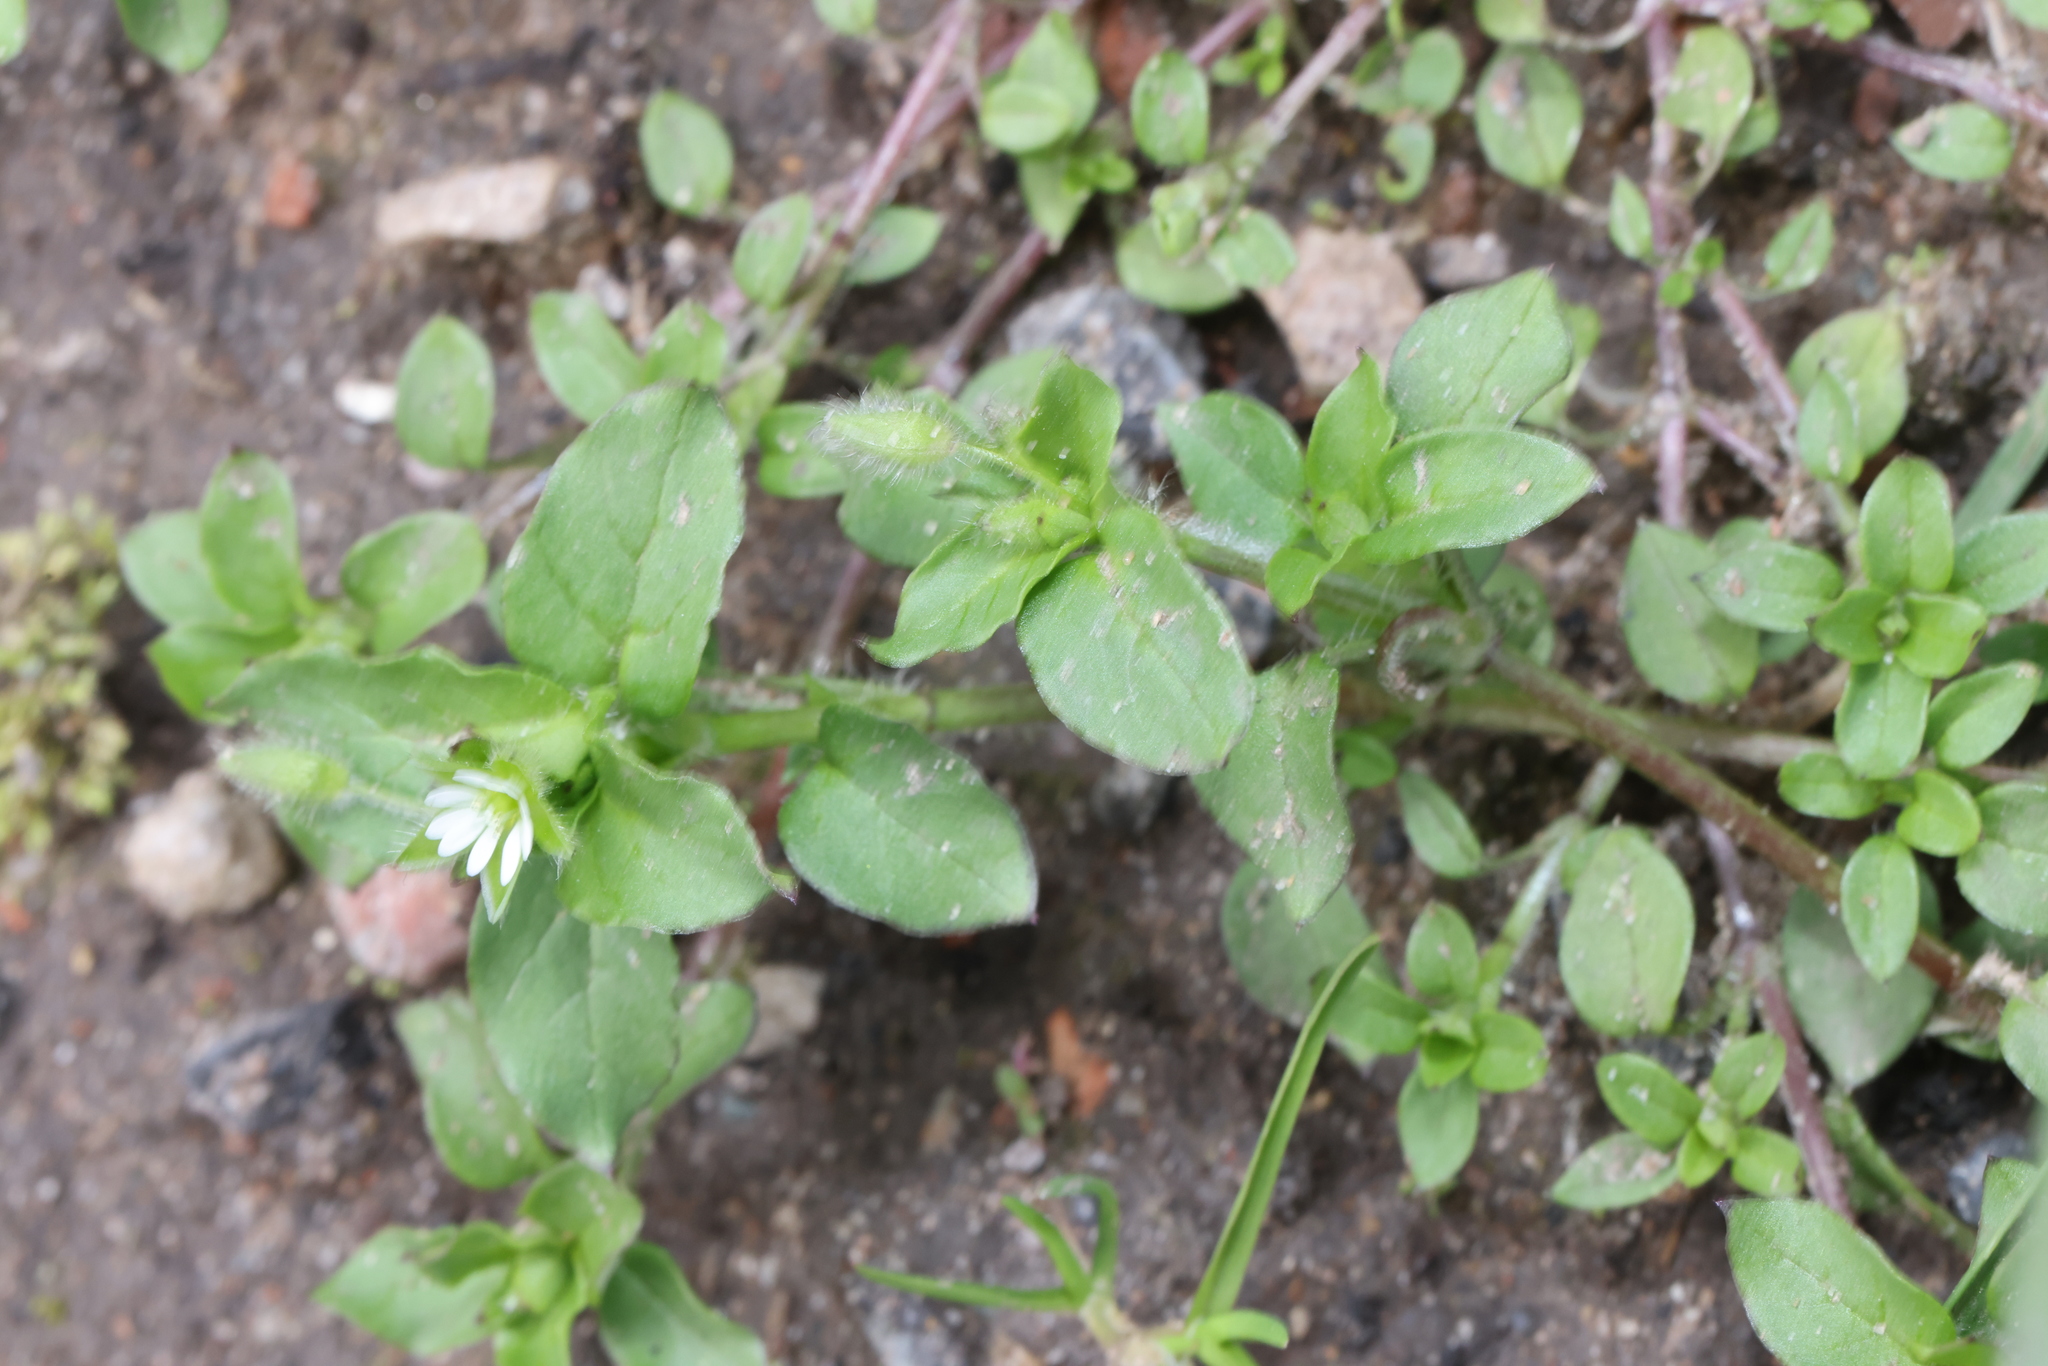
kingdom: Plantae
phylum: Tracheophyta
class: Magnoliopsida
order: Caryophyllales
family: Caryophyllaceae
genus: Stellaria
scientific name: Stellaria media
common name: Common chickweed
